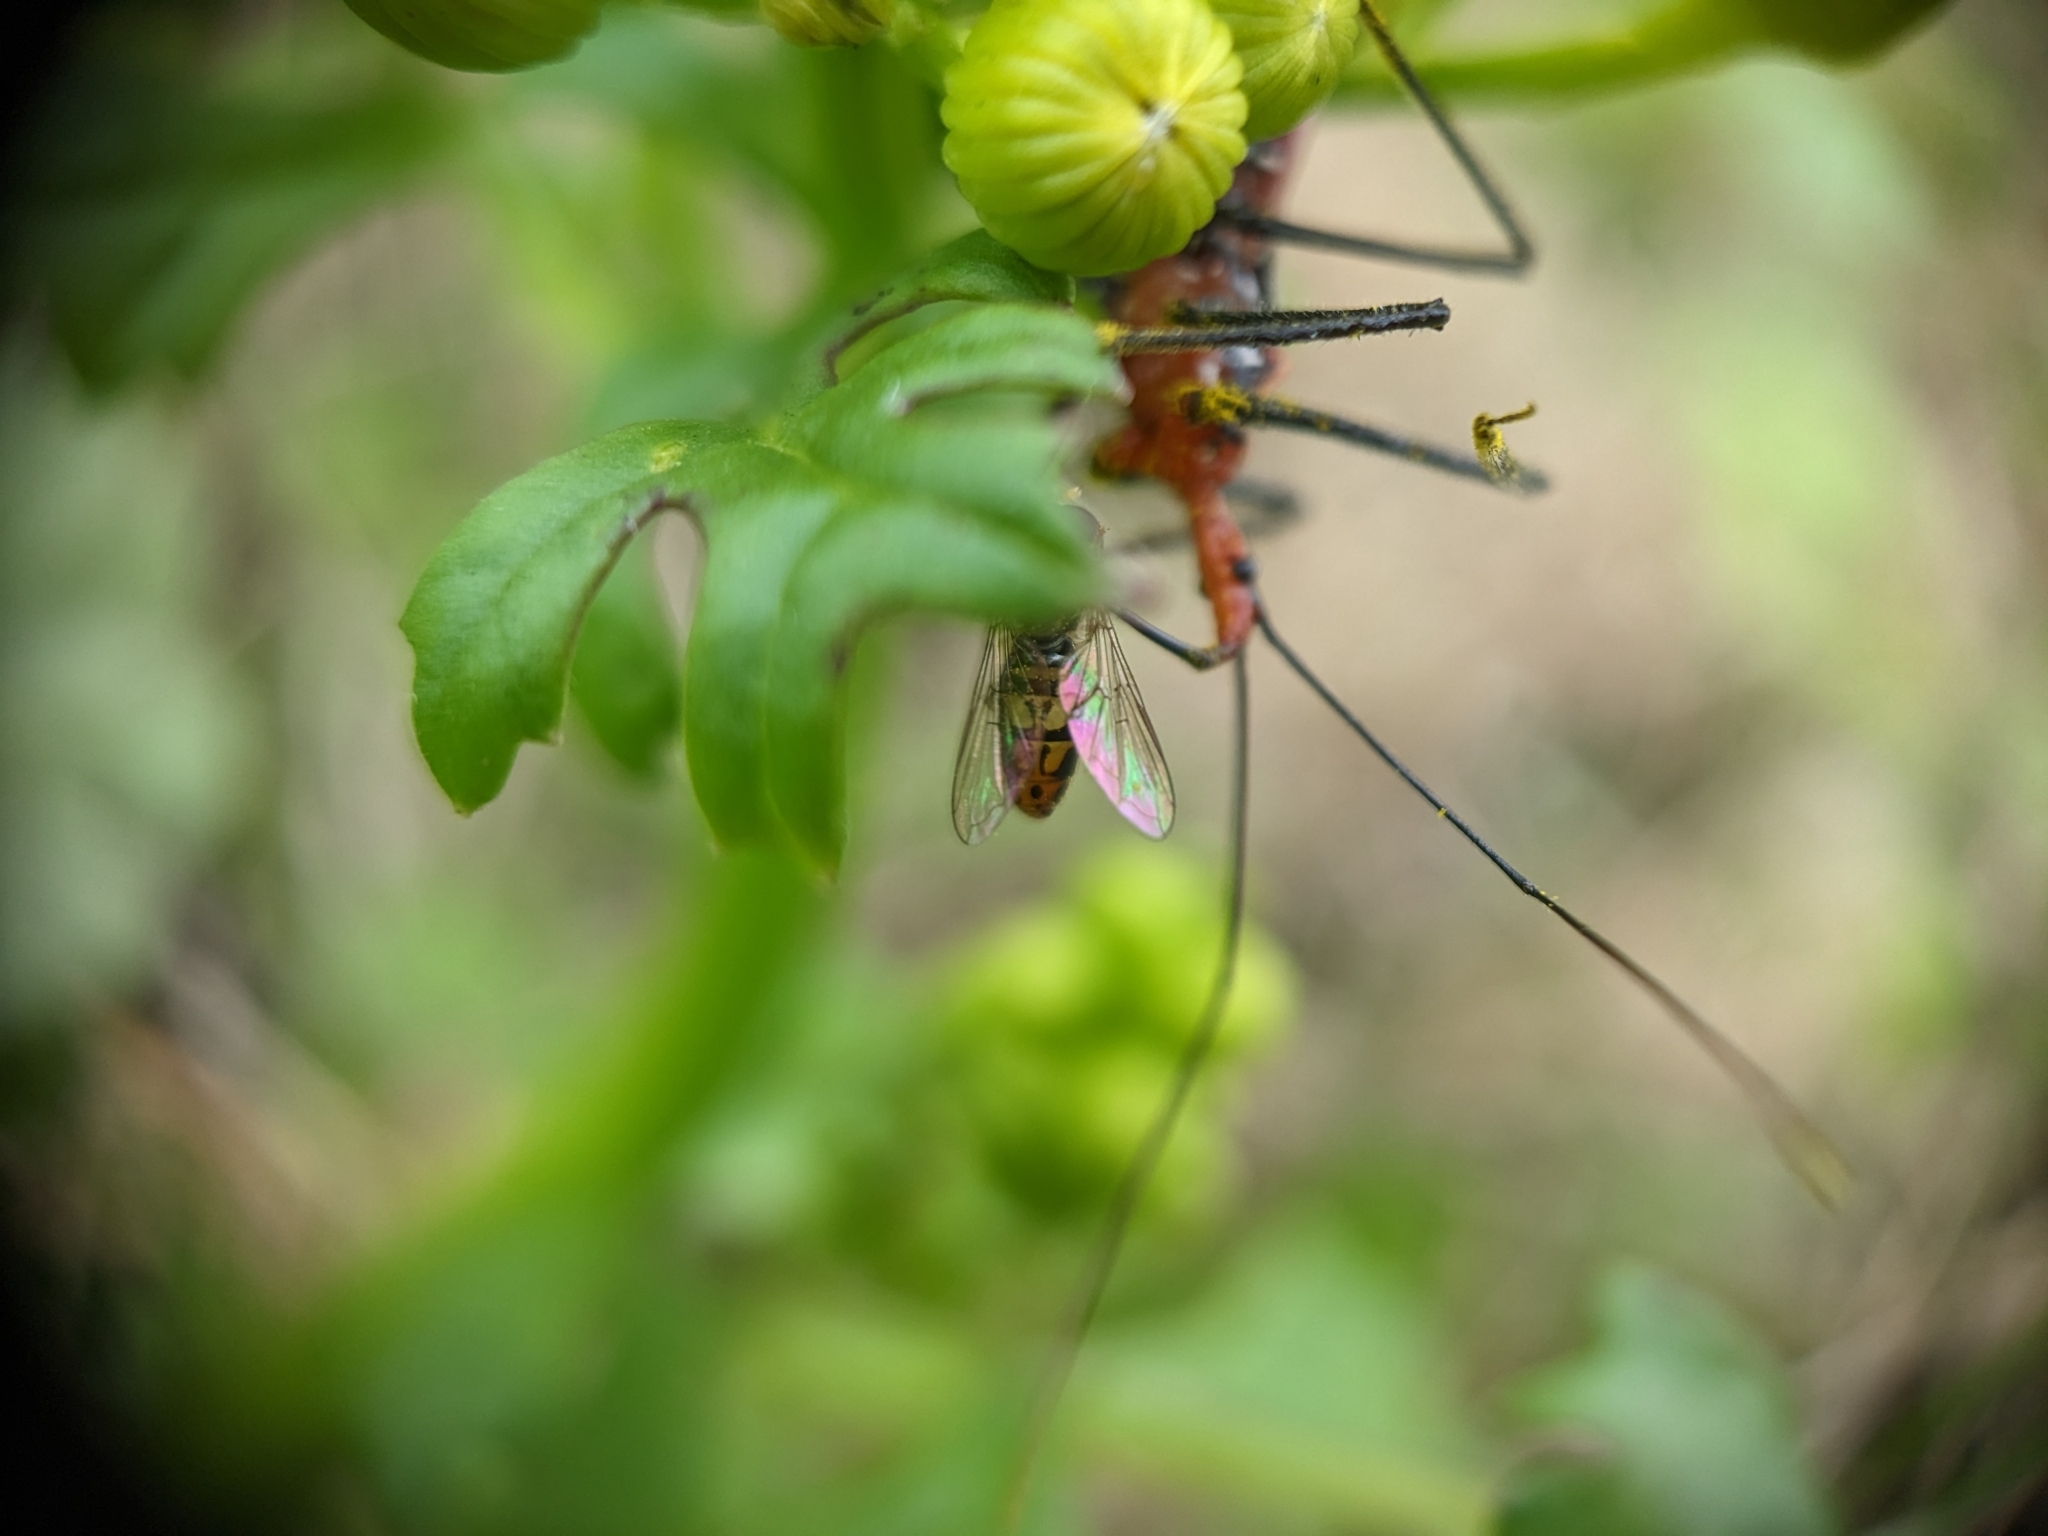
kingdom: Animalia
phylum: Arthropoda
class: Insecta
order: Hemiptera
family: Reduviidae
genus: Zelus
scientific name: Zelus longipes
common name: Milkweed assassin bug
